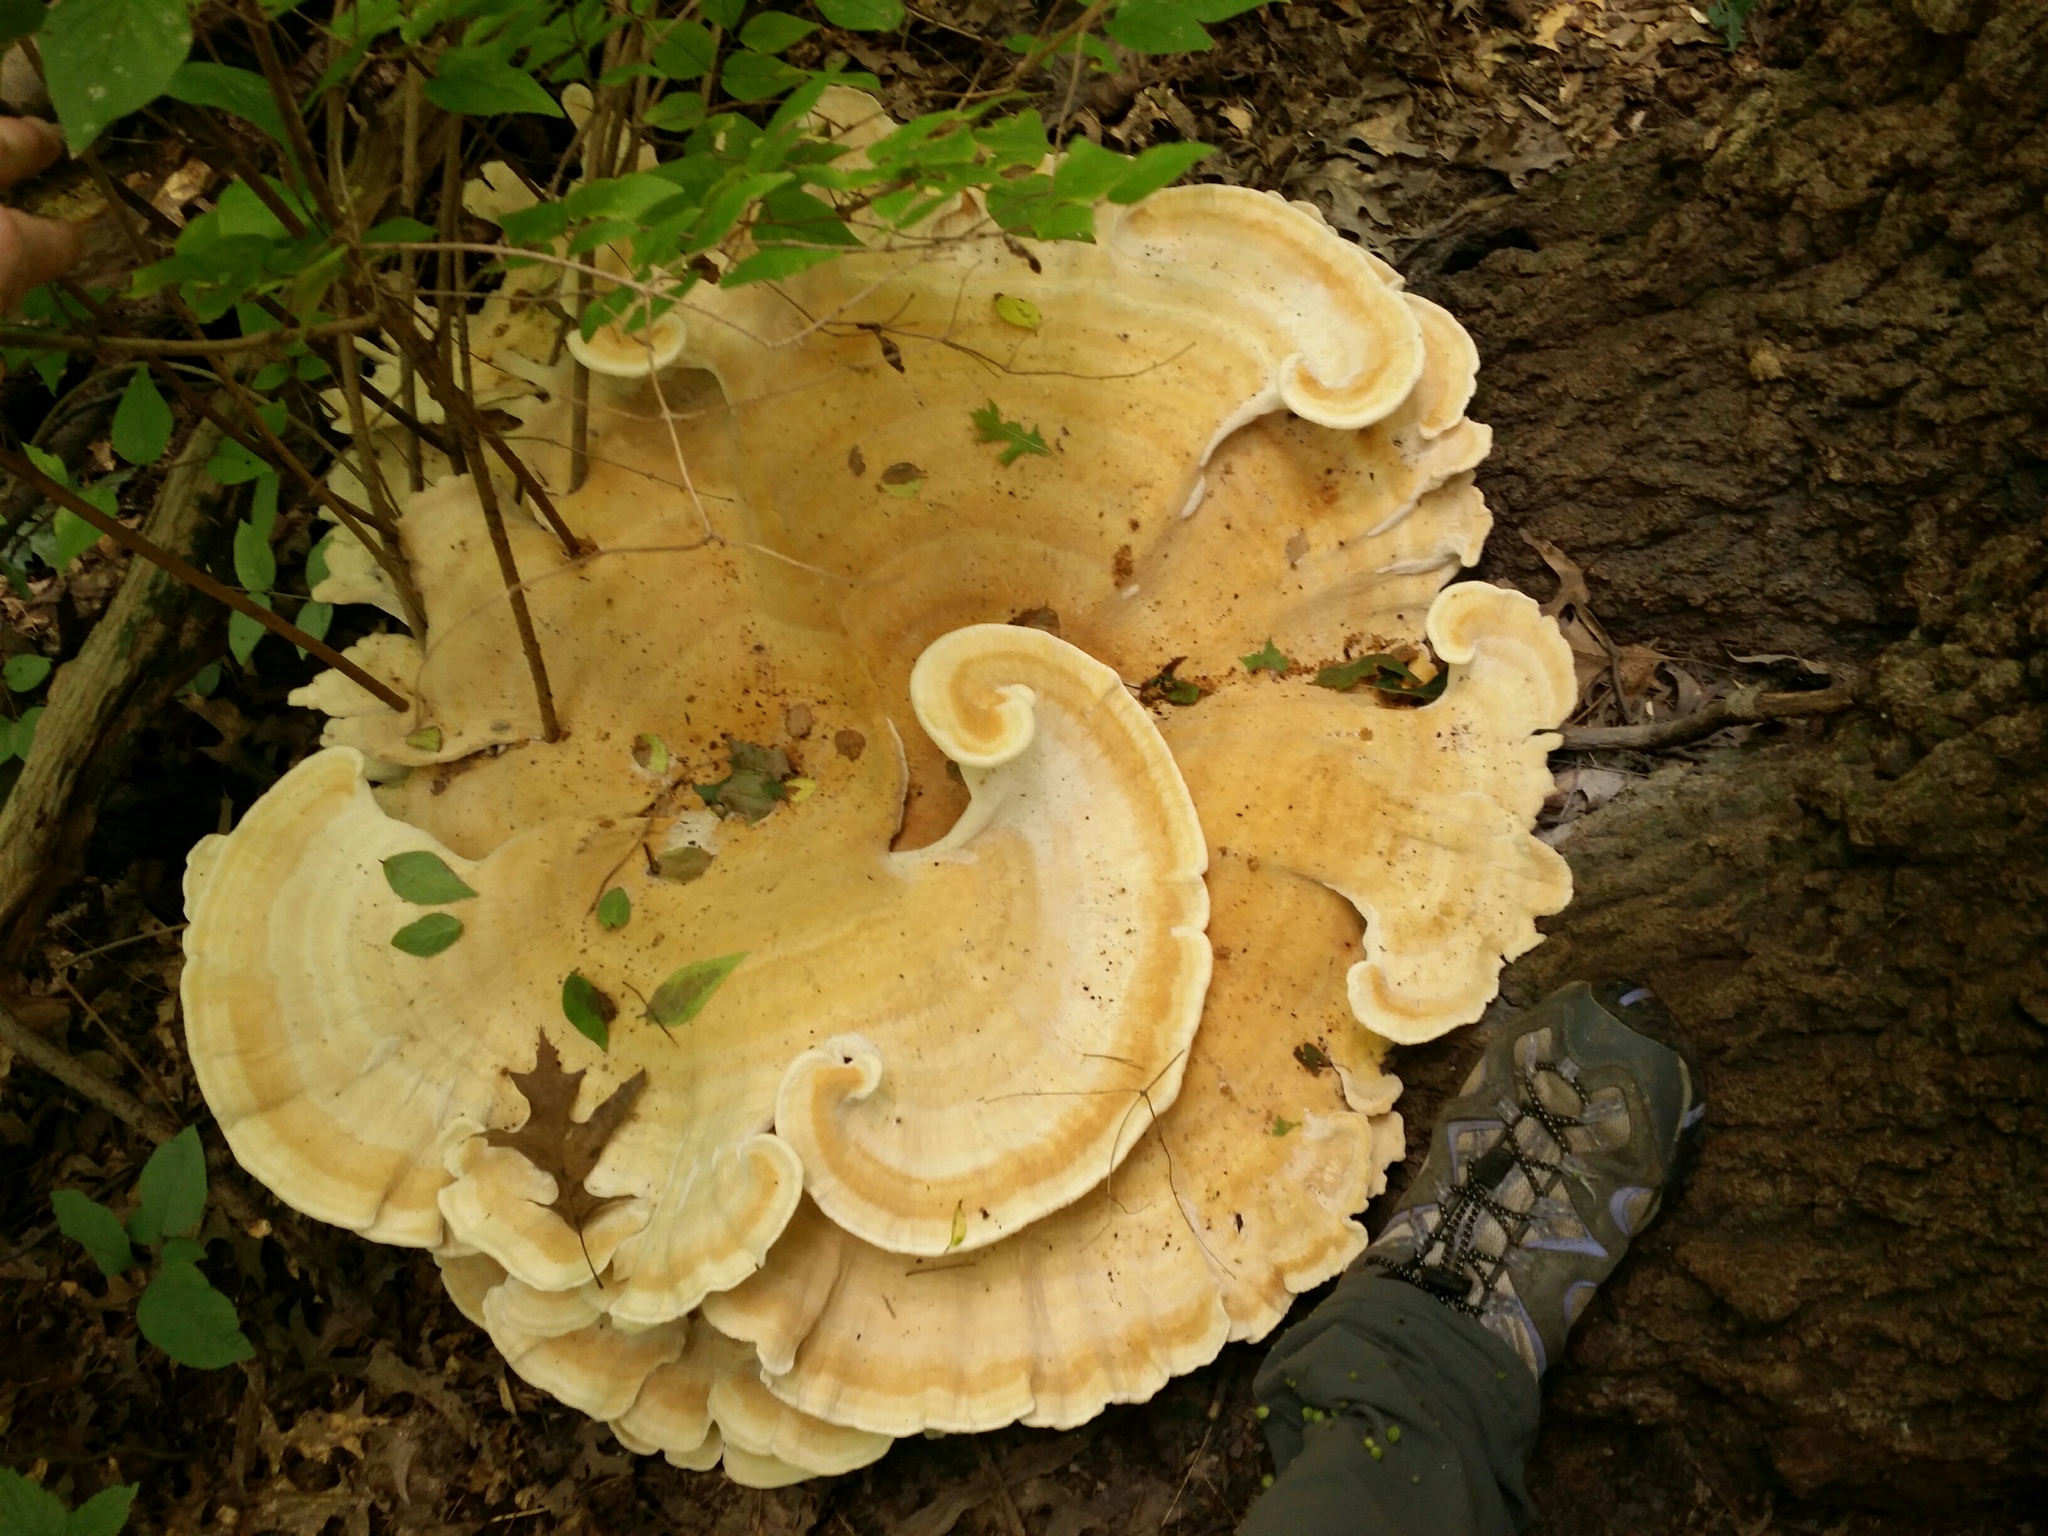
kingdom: Fungi
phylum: Basidiomycota
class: Agaricomycetes
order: Russulales
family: Bondarzewiaceae
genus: Bondarzewia
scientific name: Bondarzewia berkeleyi
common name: Berkeley's polypore
